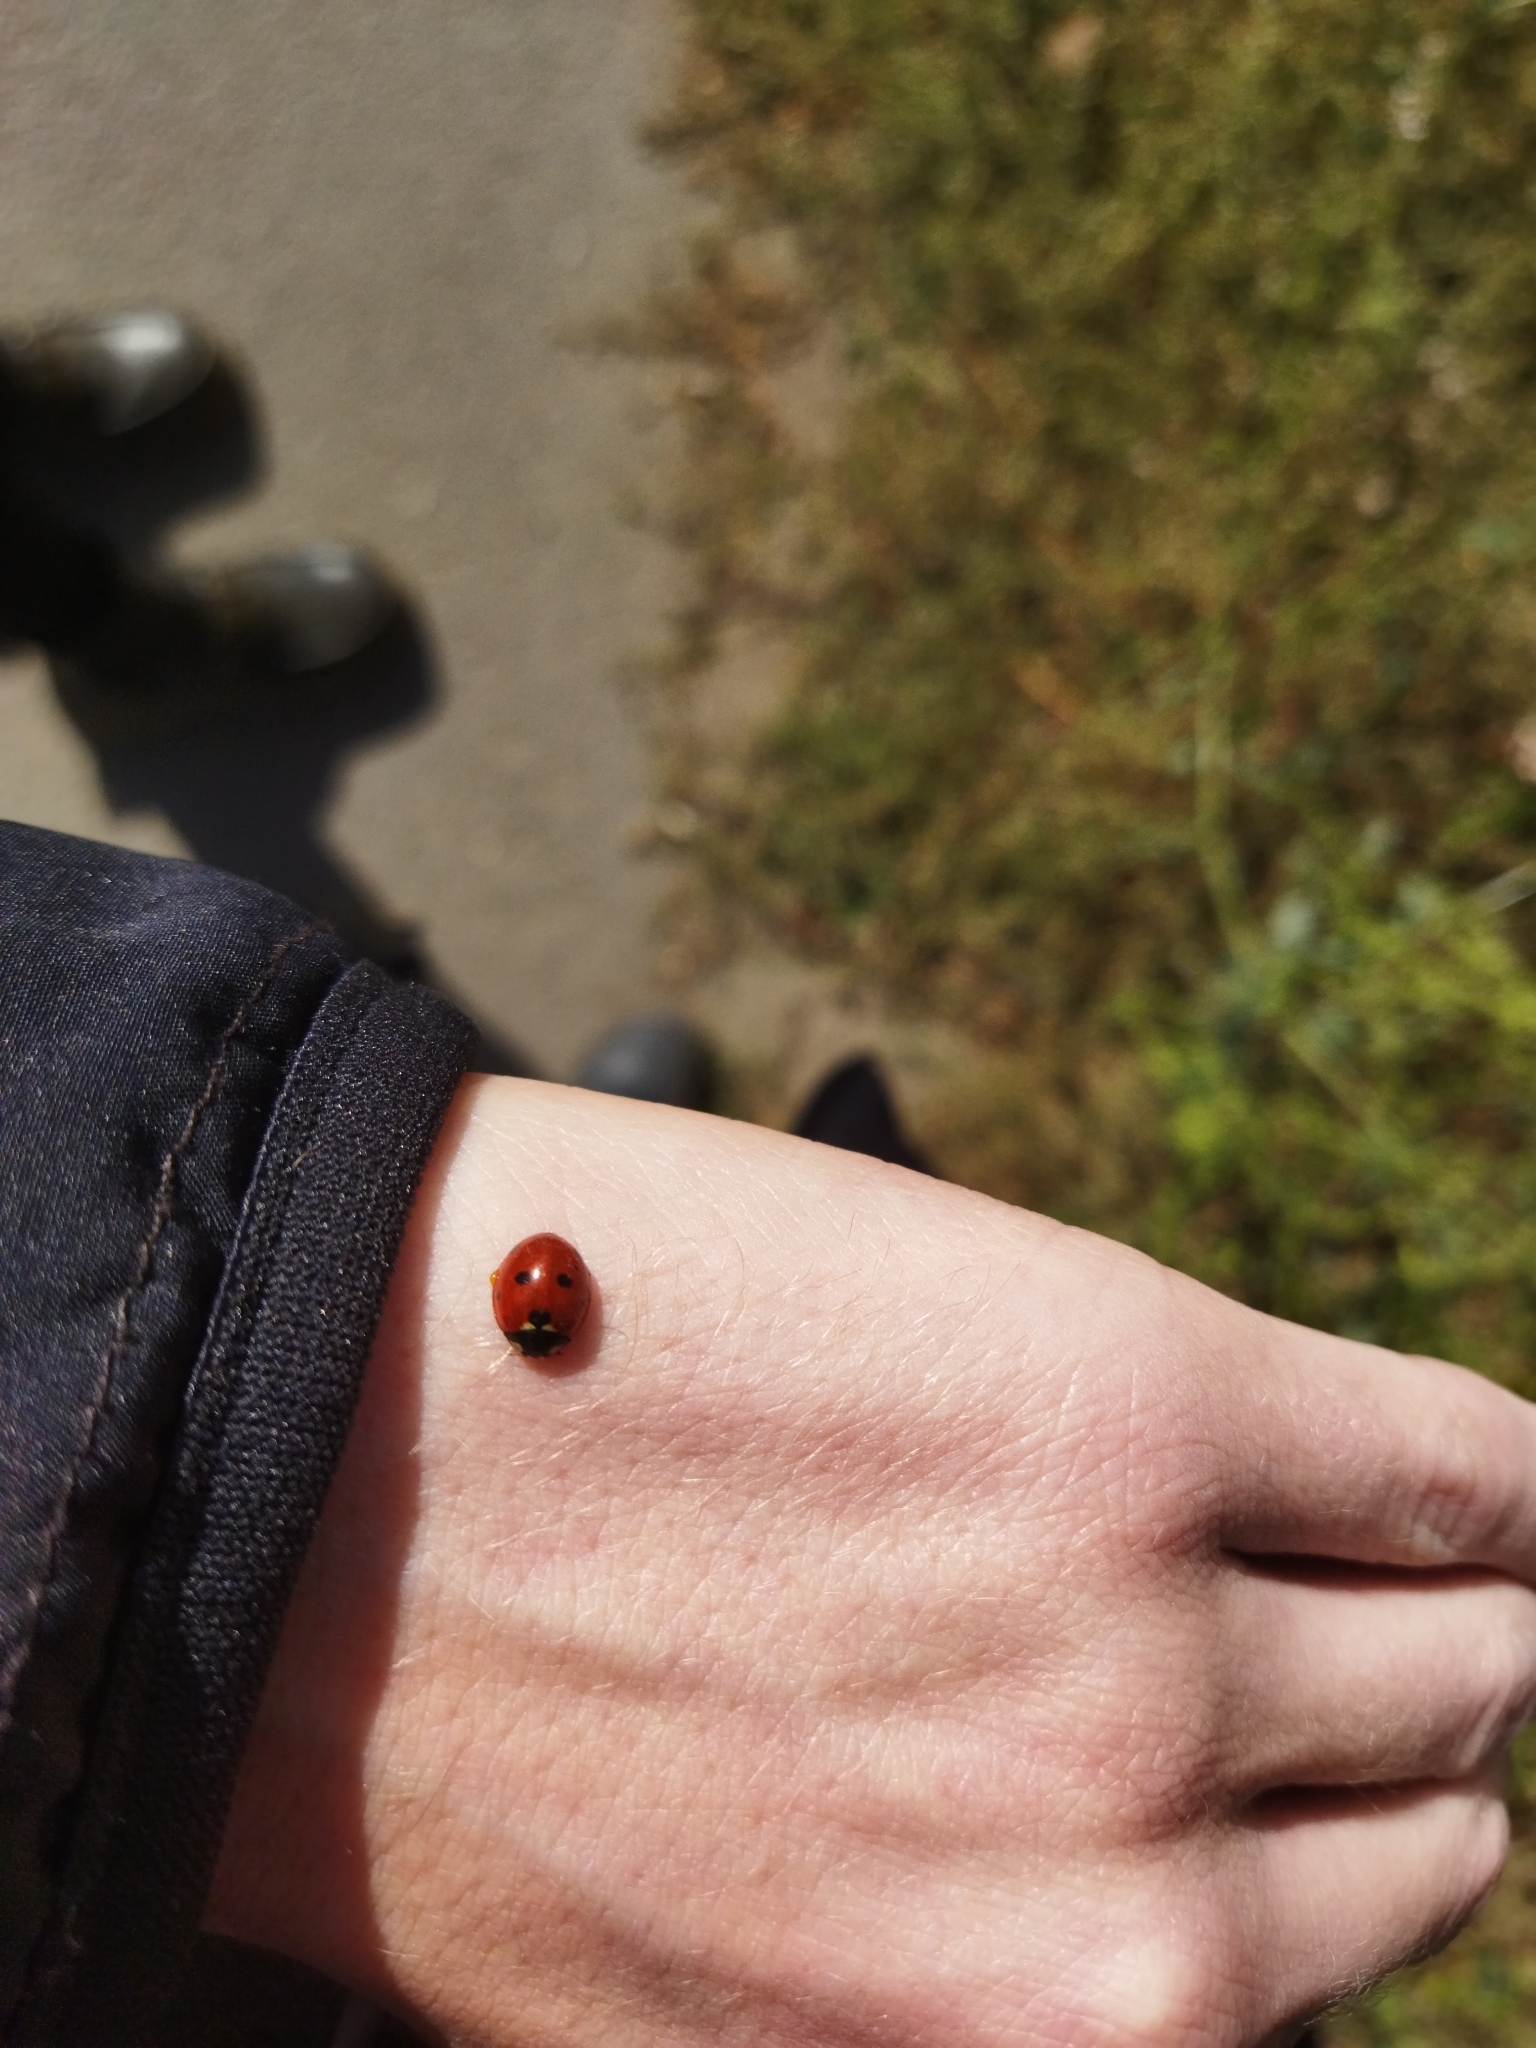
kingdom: Animalia
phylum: Arthropoda
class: Insecta
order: Coleoptera
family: Coccinellidae
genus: Coccinella
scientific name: Coccinella septempunctata
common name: Sevenspotted lady beetle
